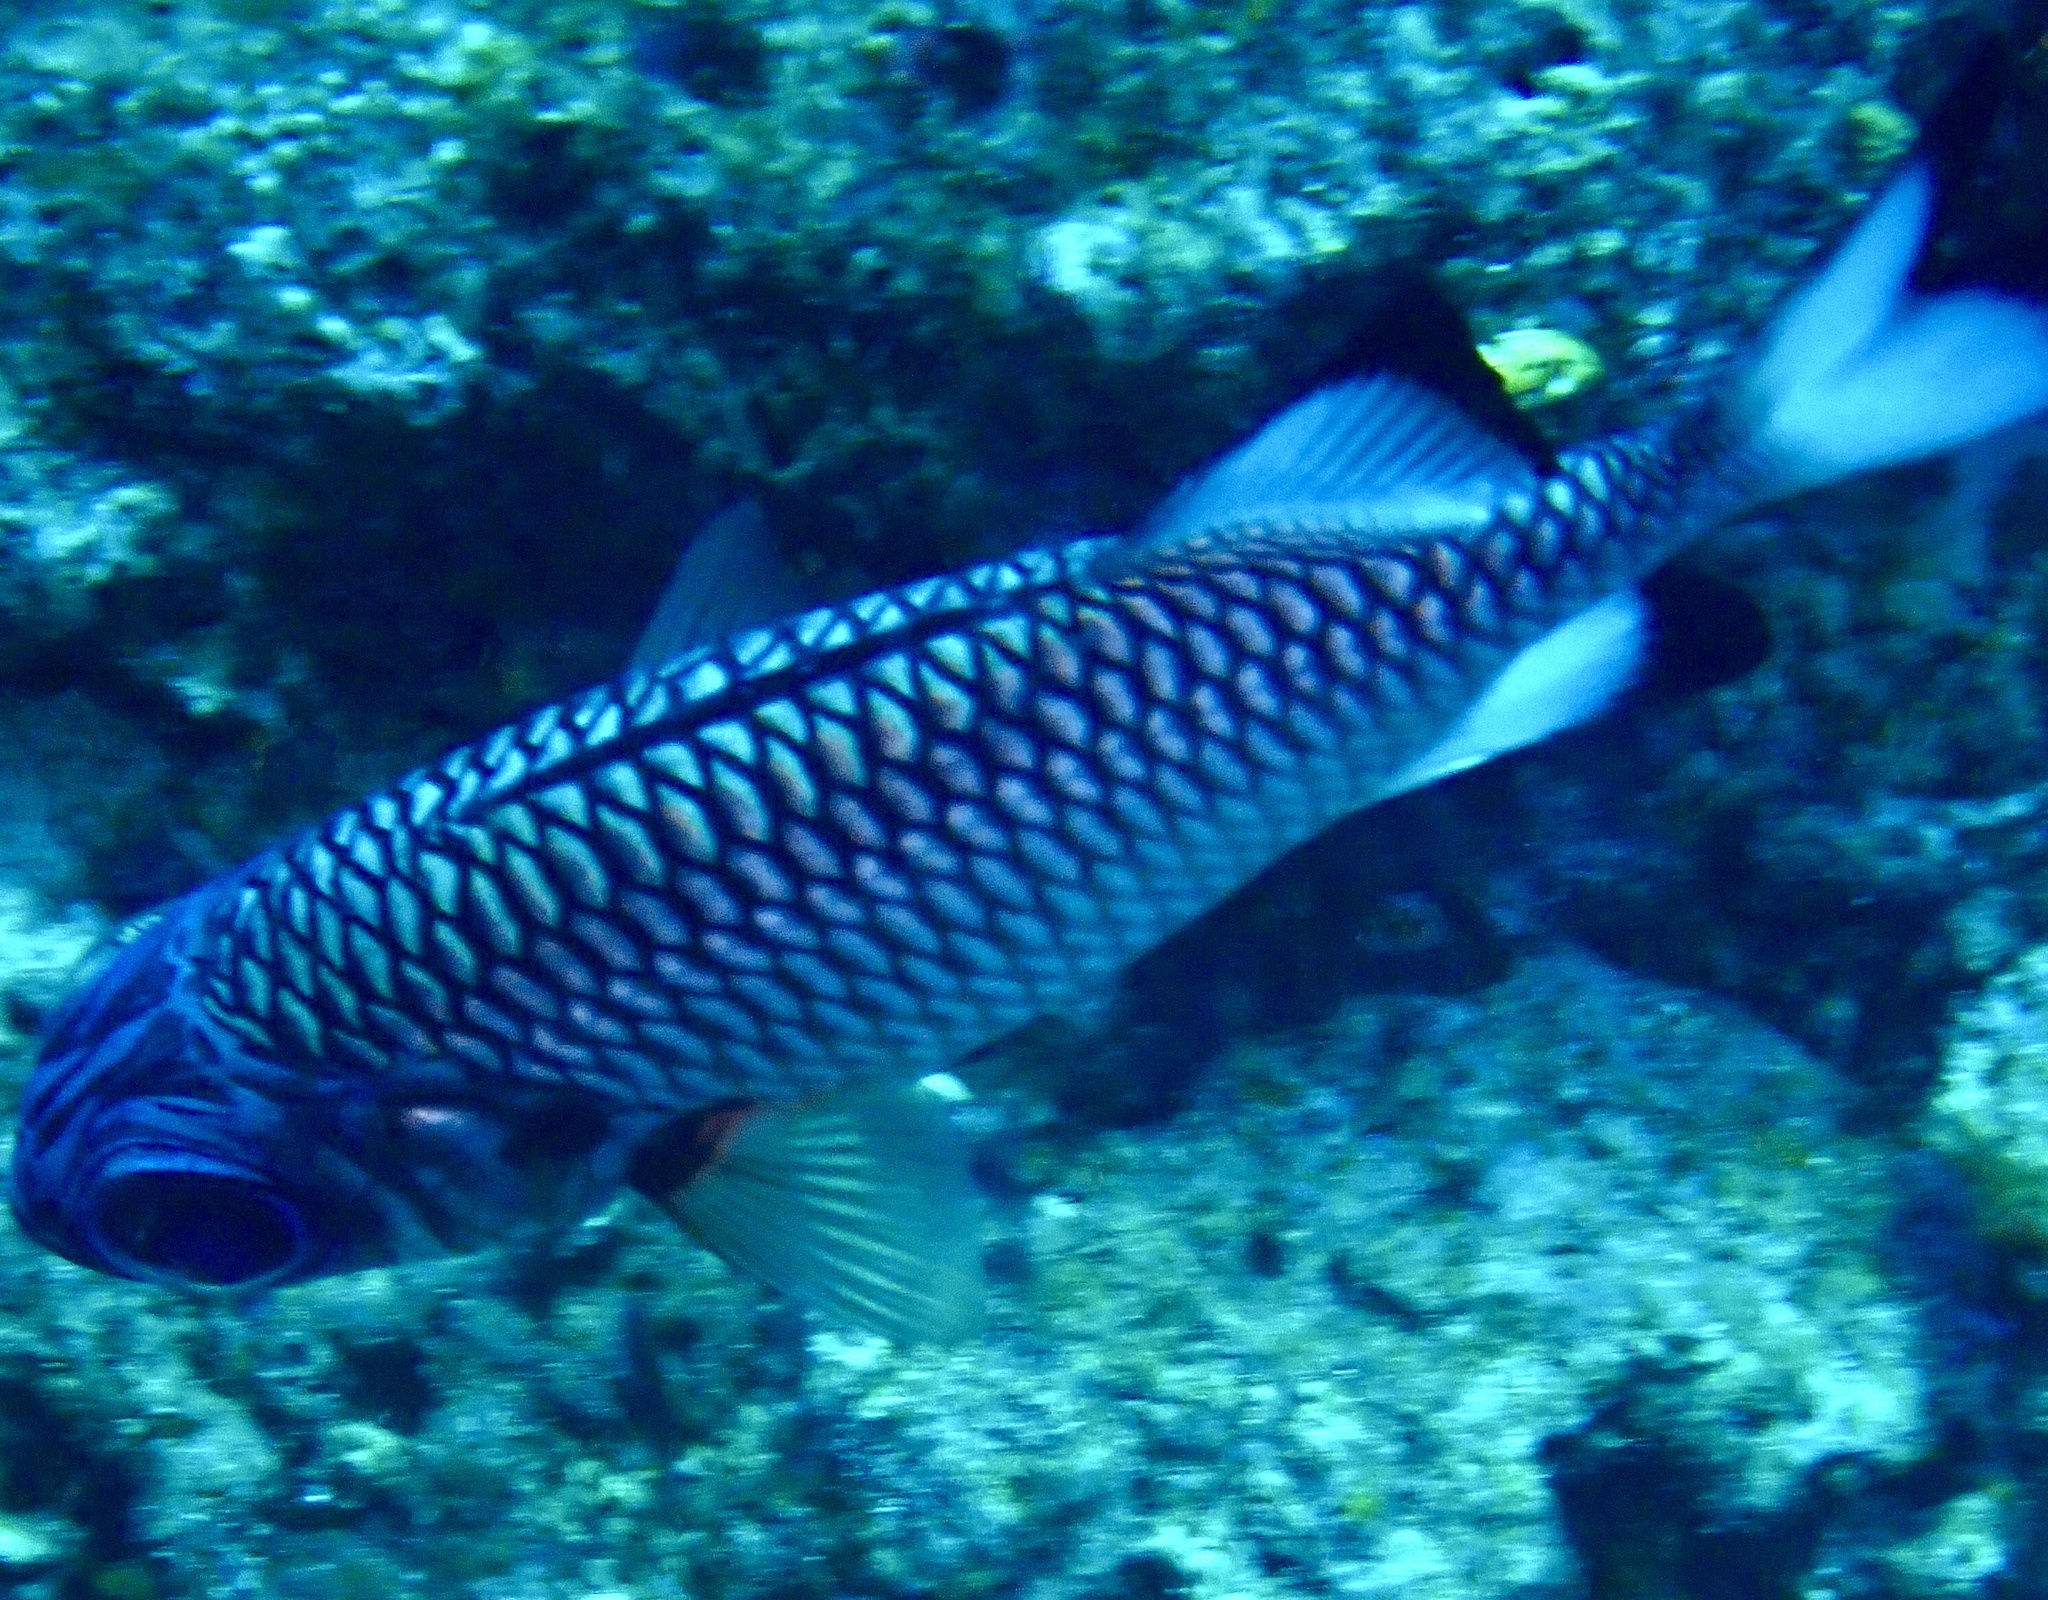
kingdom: Animalia
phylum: Chordata
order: Beryciformes
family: Holocentridae
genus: Myripristis
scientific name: Myripristis adusta
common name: Blackfin soldierfish
